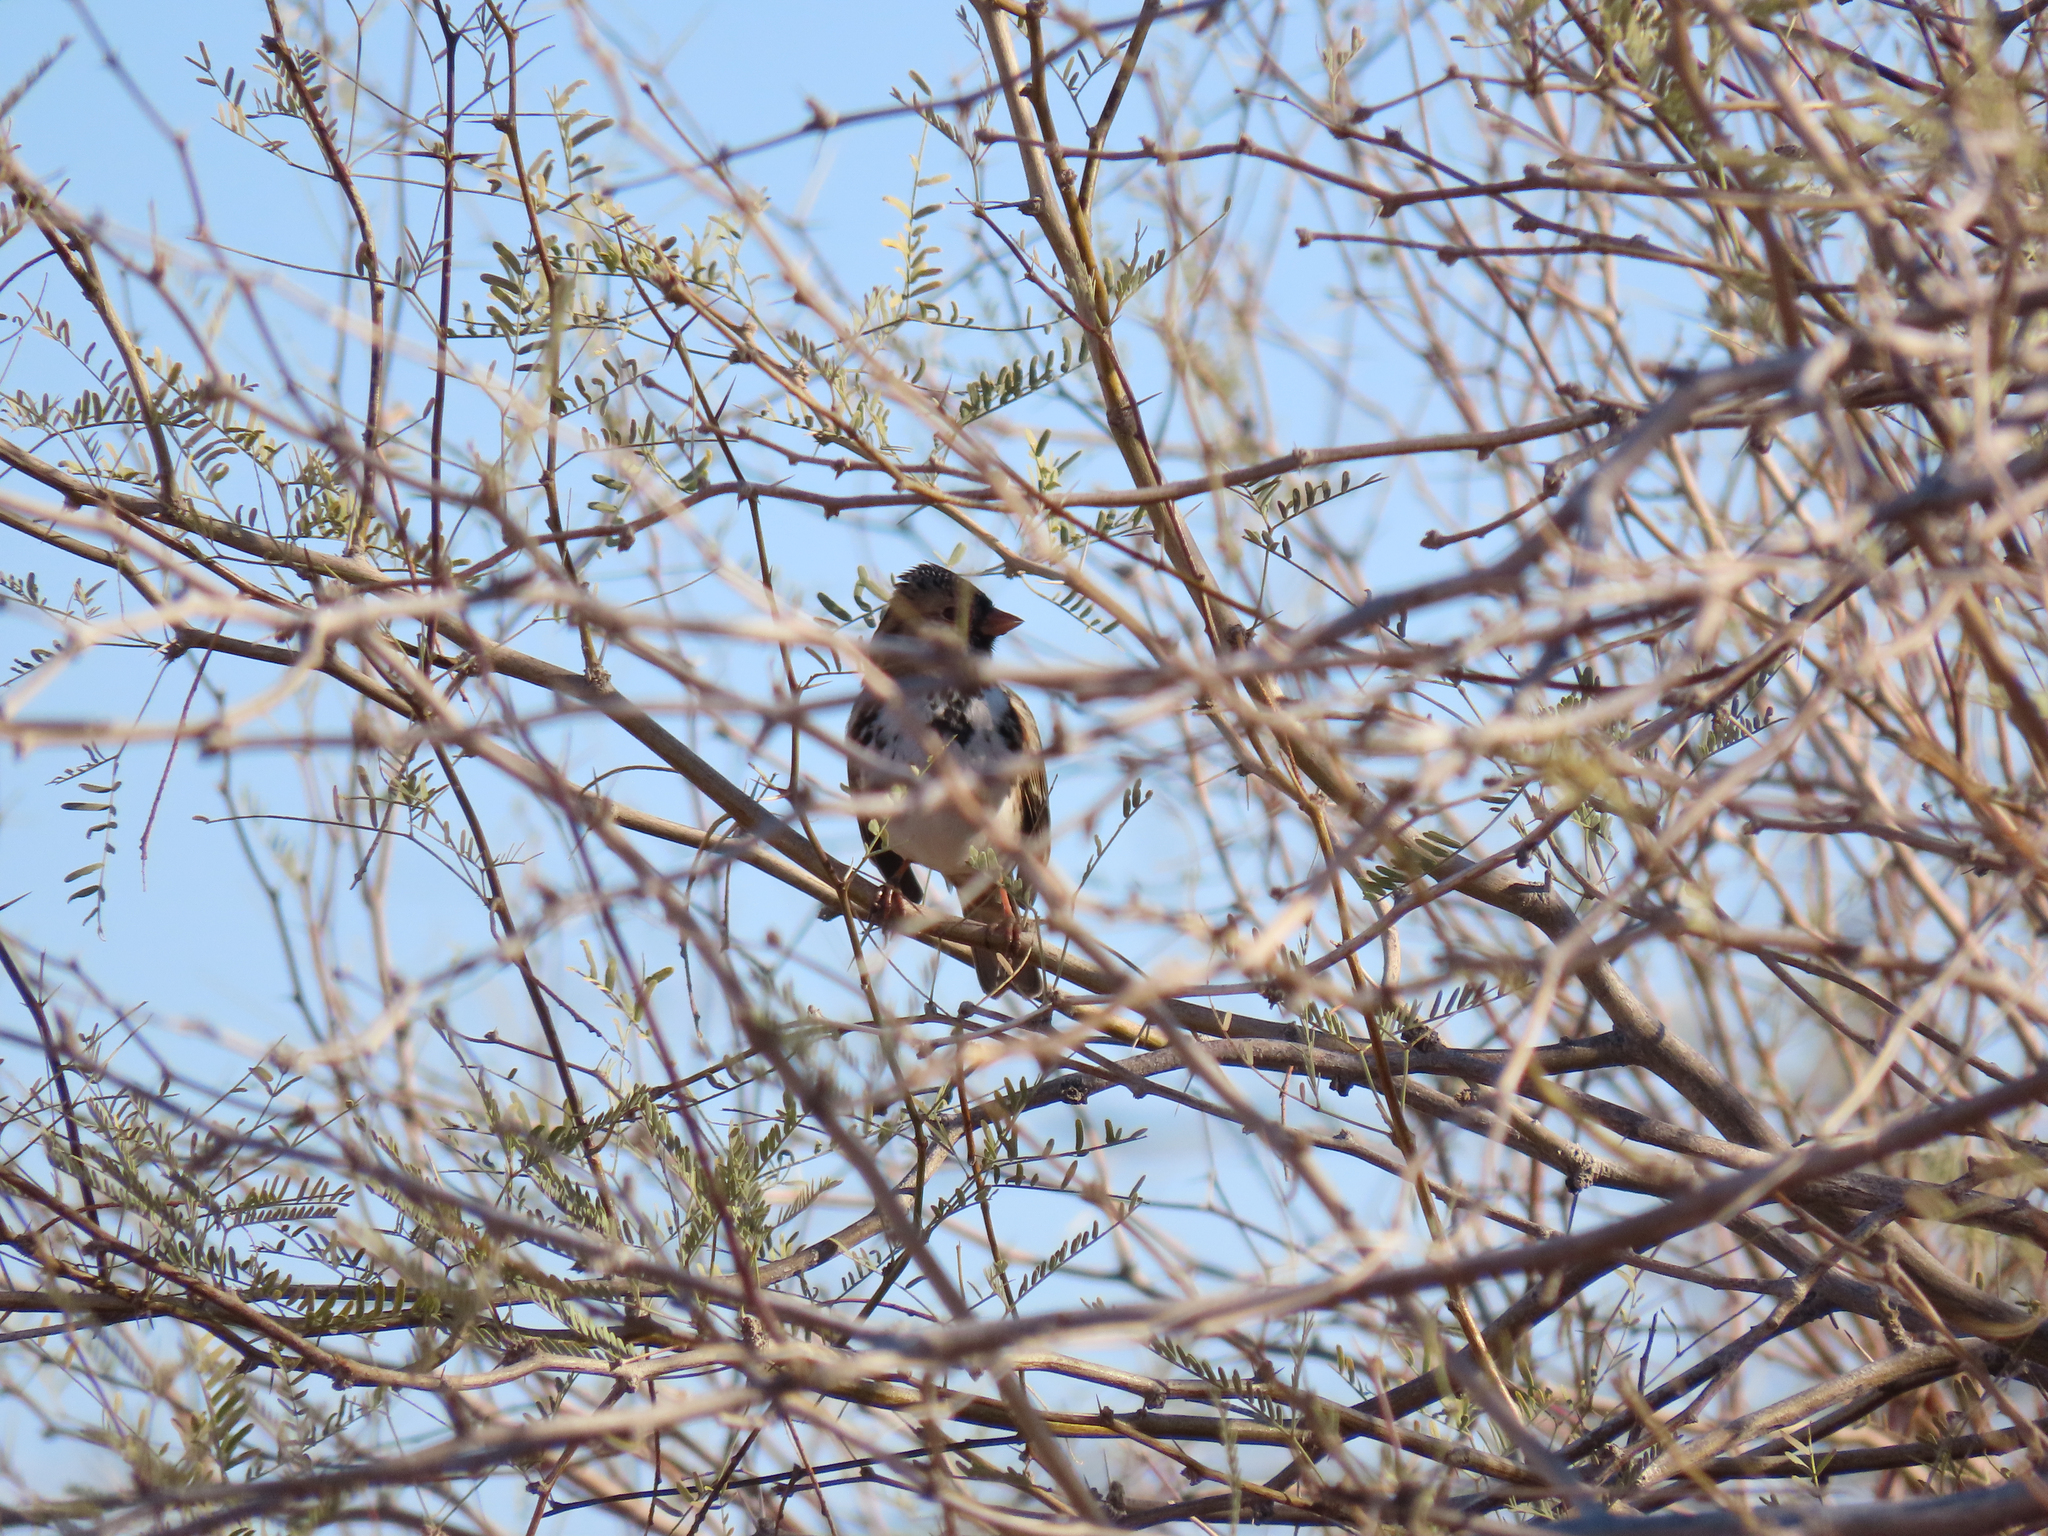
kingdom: Animalia
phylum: Chordata
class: Aves
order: Passeriformes
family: Passerellidae
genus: Zonotrichia
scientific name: Zonotrichia querula
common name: Harris's sparrow
